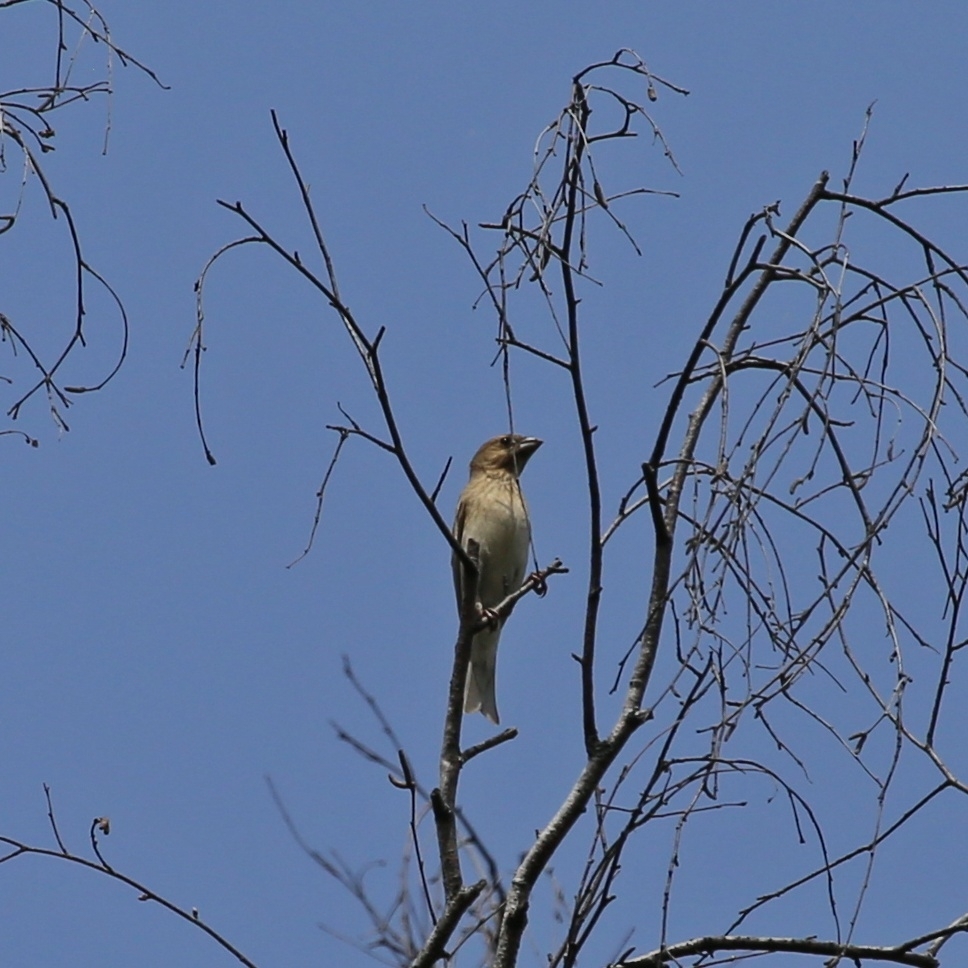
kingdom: Animalia
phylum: Chordata
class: Aves
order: Passeriformes
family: Fringillidae
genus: Carpodacus
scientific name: Carpodacus erythrinus
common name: Common rosefinch
